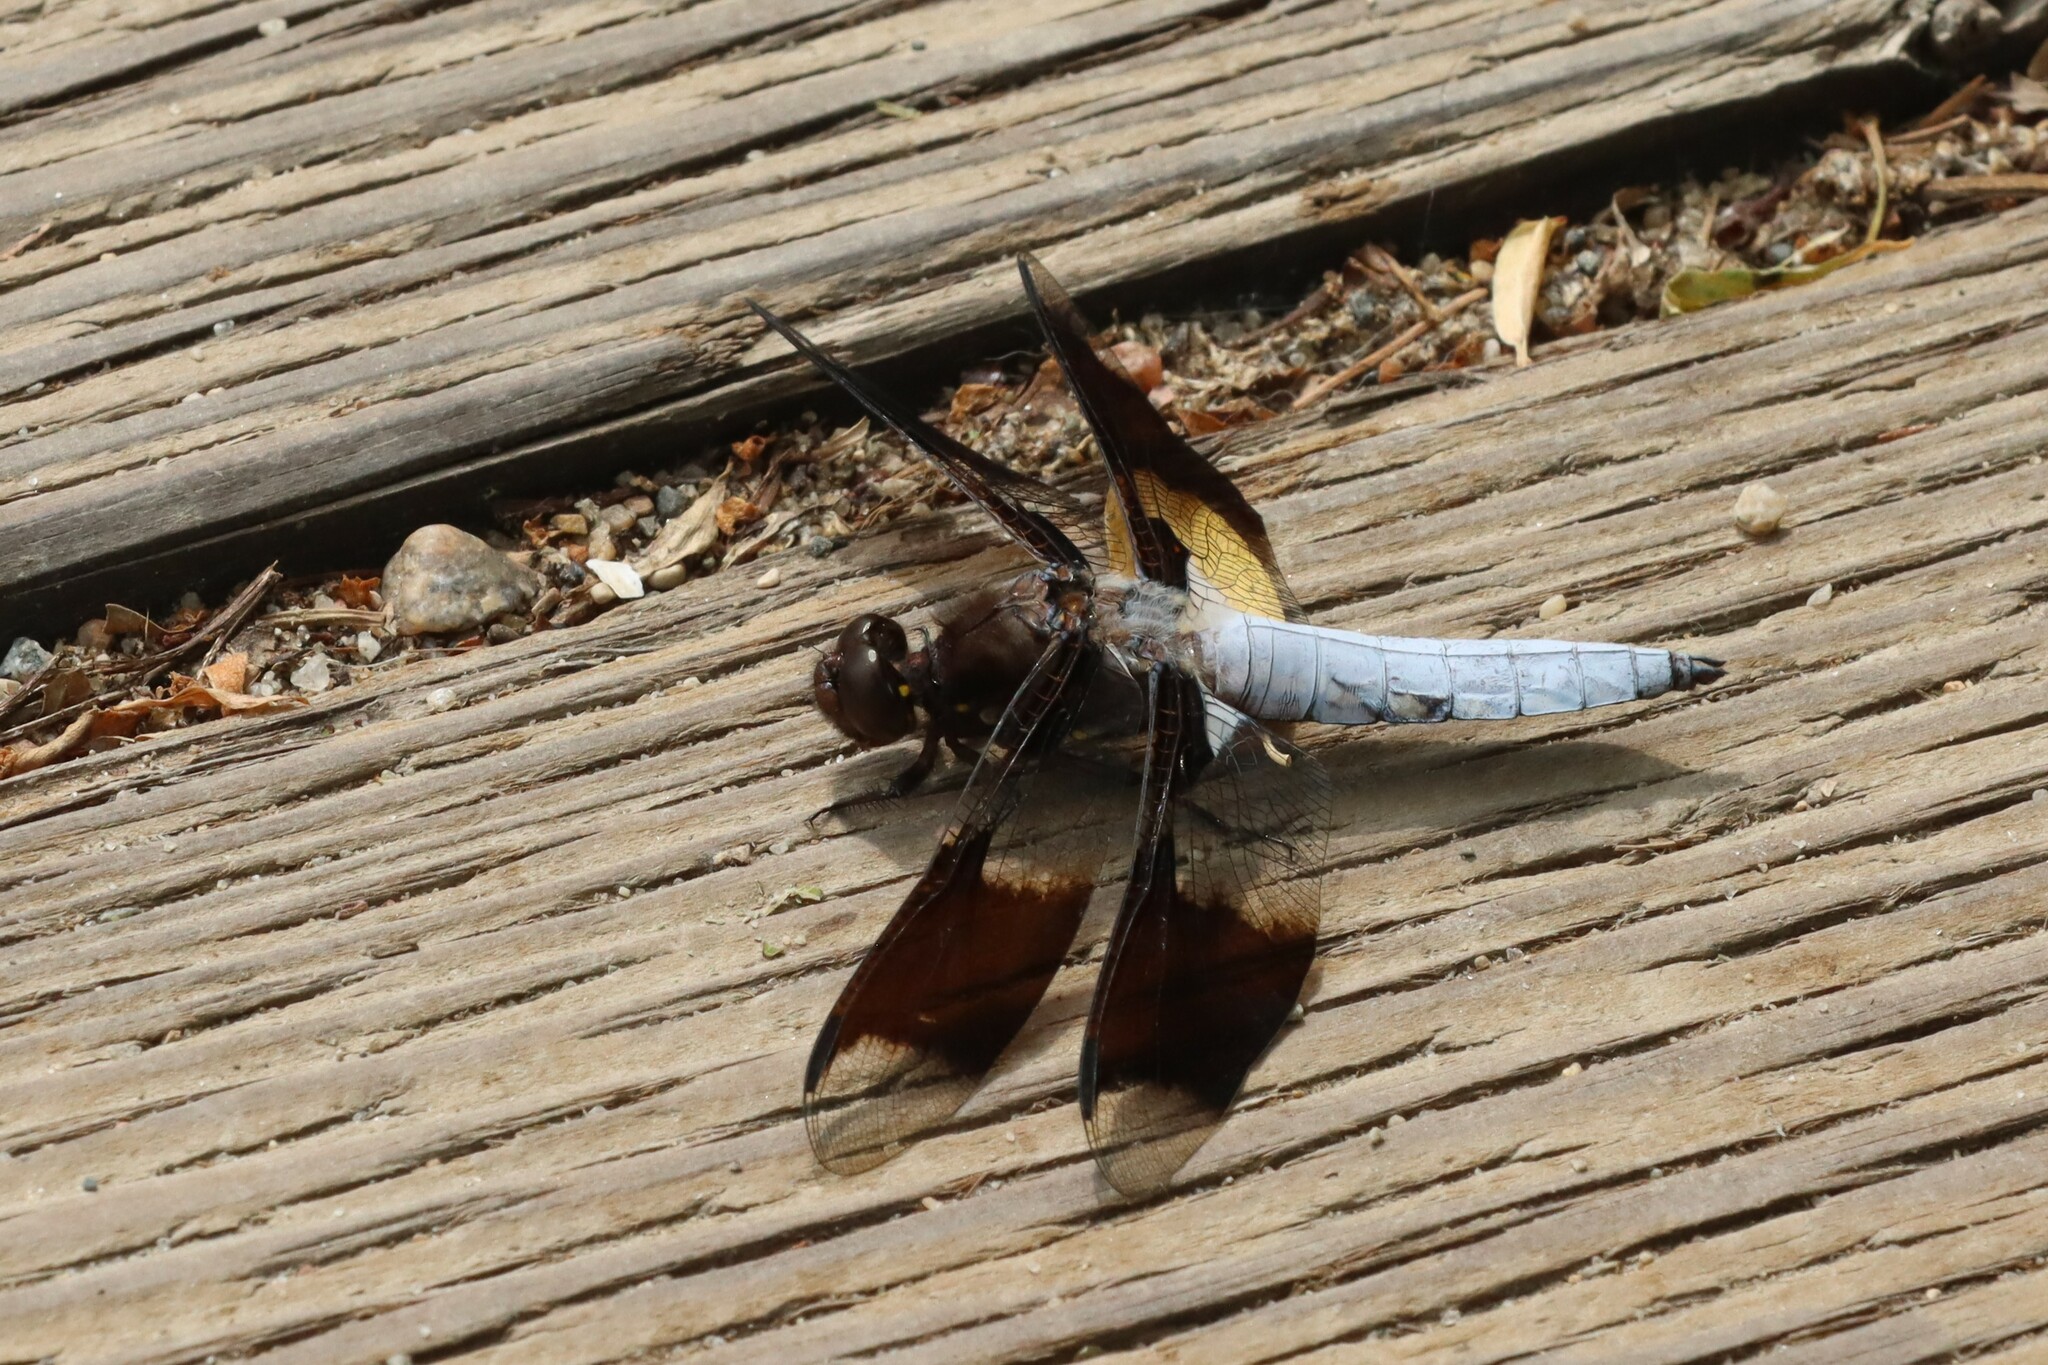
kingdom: Animalia
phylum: Arthropoda
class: Insecta
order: Odonata
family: Libellulidae
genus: Plathemis
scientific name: Plathemis lydia
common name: Common whitetail
